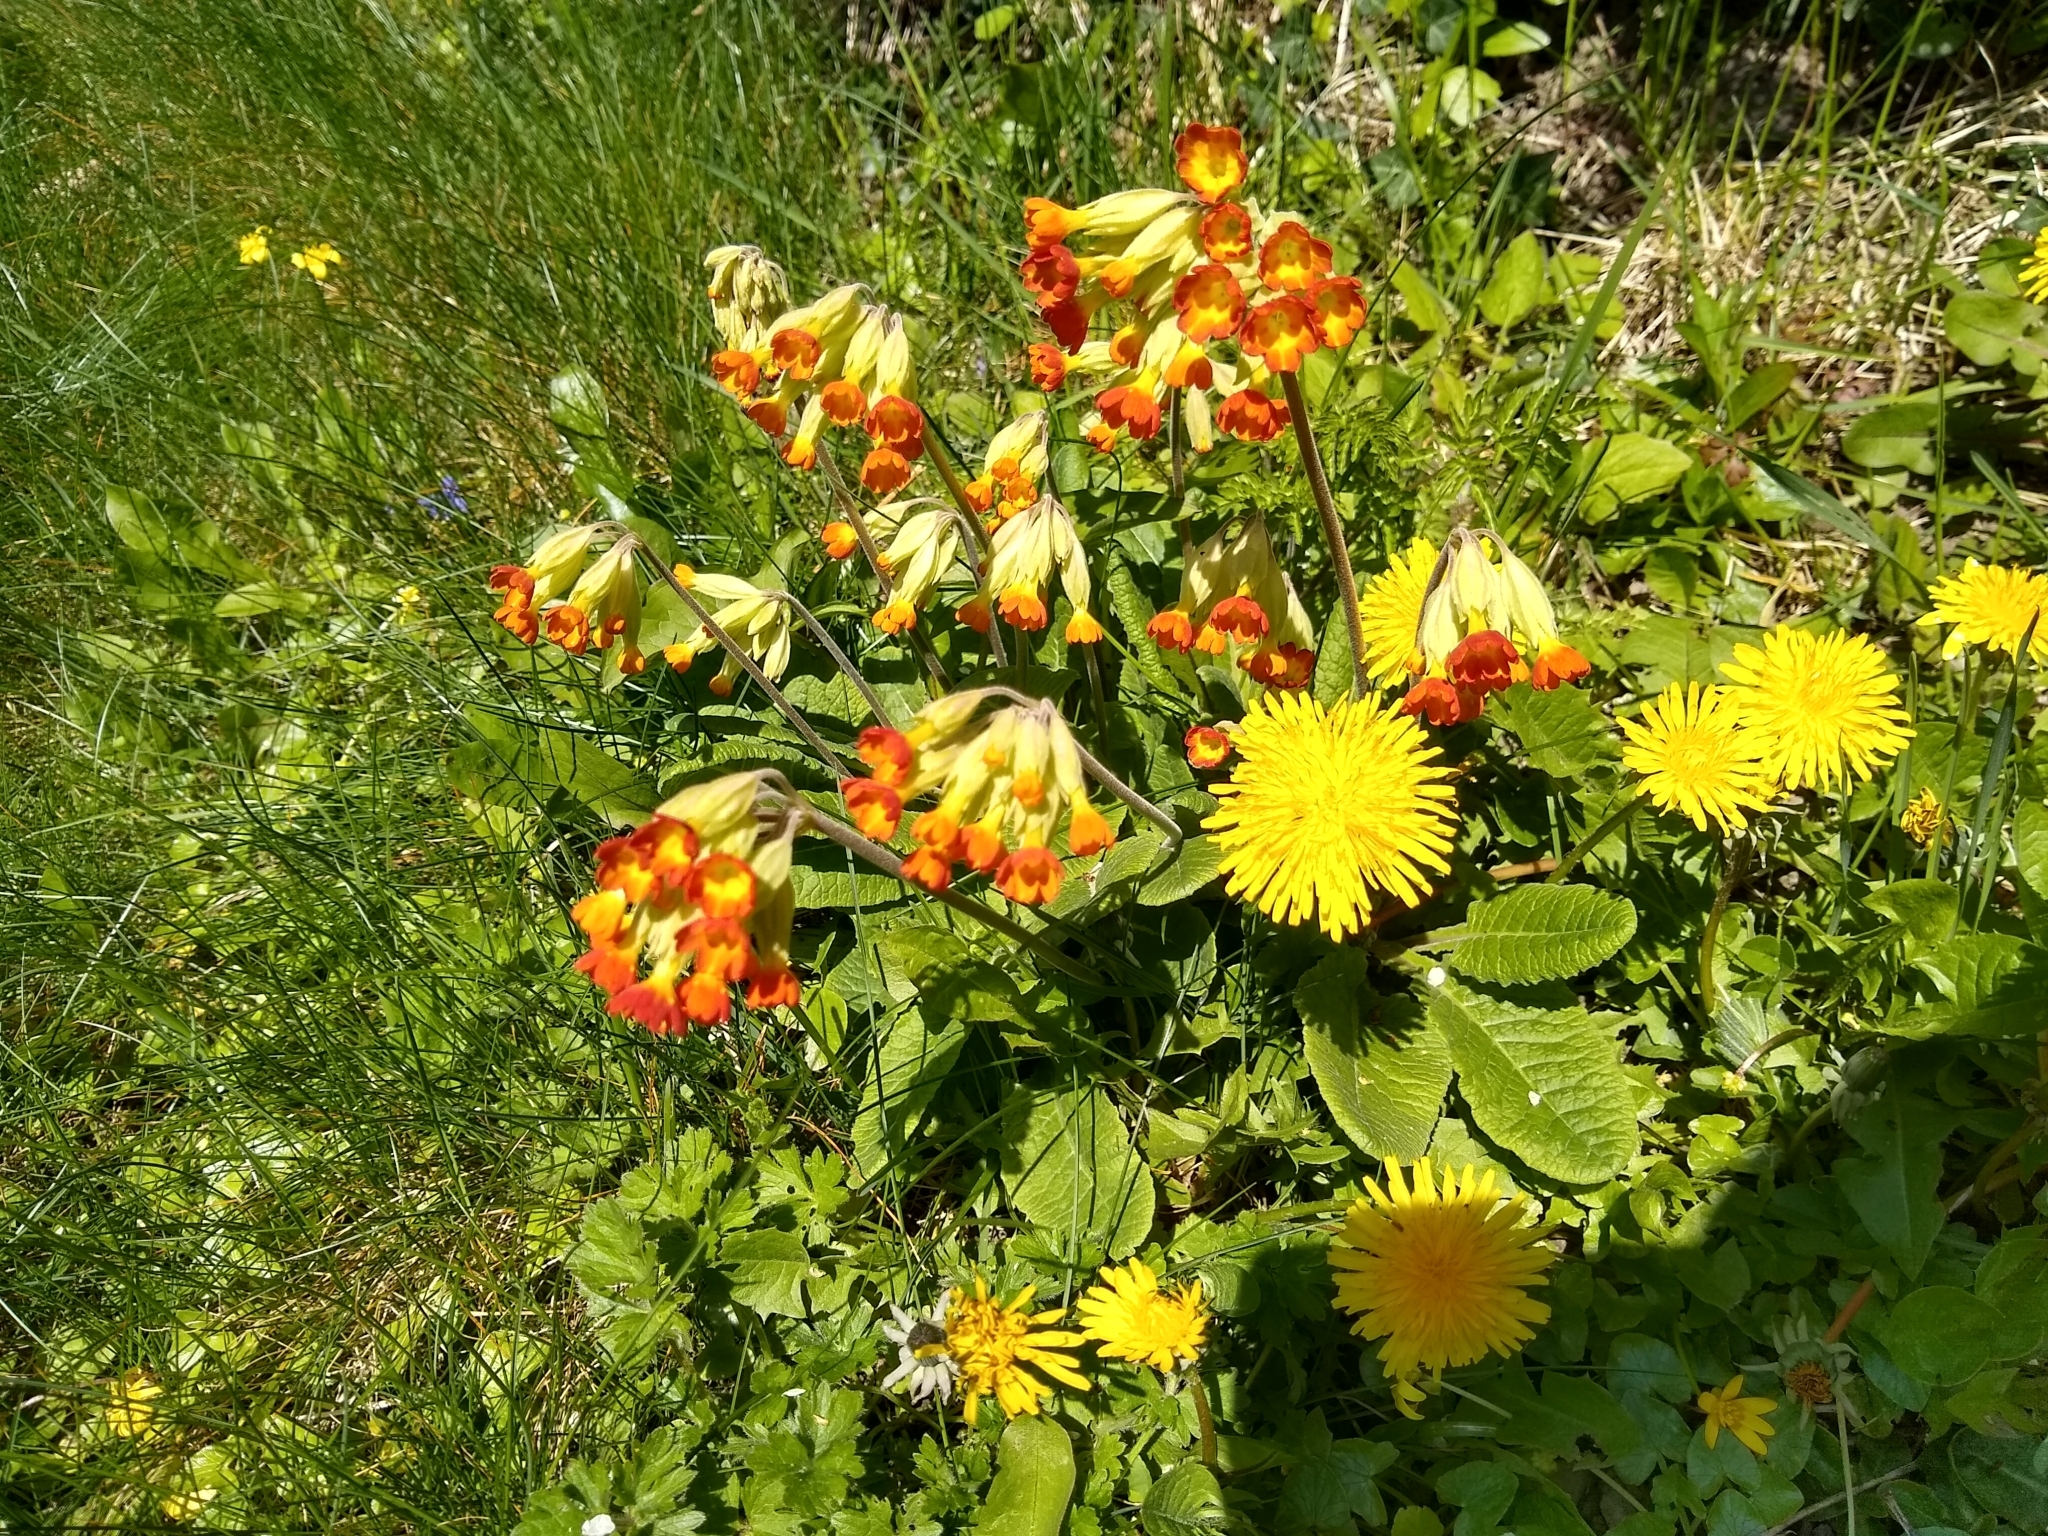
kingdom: Plantae
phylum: Tracheophyta
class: Magnoliopsida
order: Ericales
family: Primulaceae
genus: Primula
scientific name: Primula veris
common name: Cowslip
